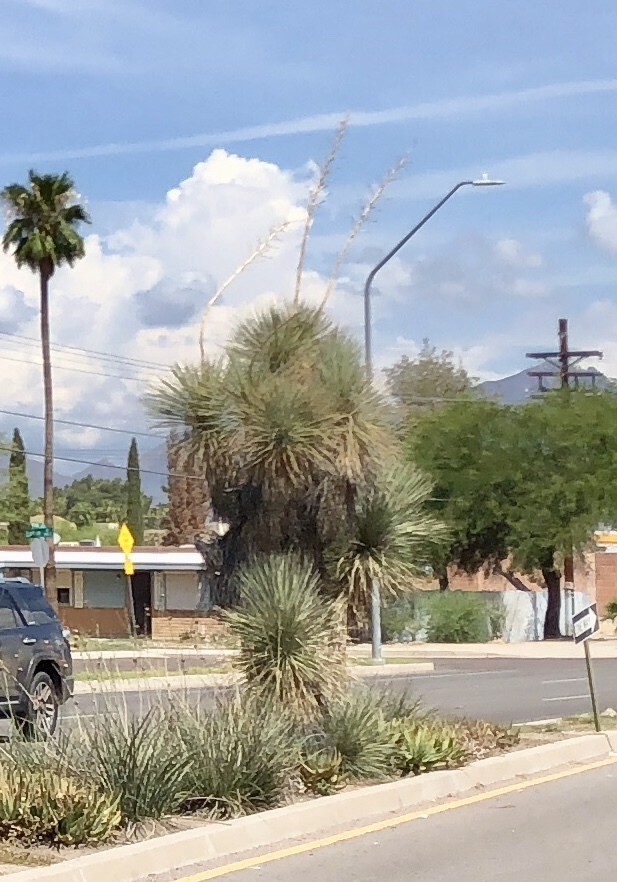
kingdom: Plantae
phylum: Tracheophyta
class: Liliopsida
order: Asparagales
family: Asparagaceae
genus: Yucca
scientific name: Yucca elata
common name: Palmella
